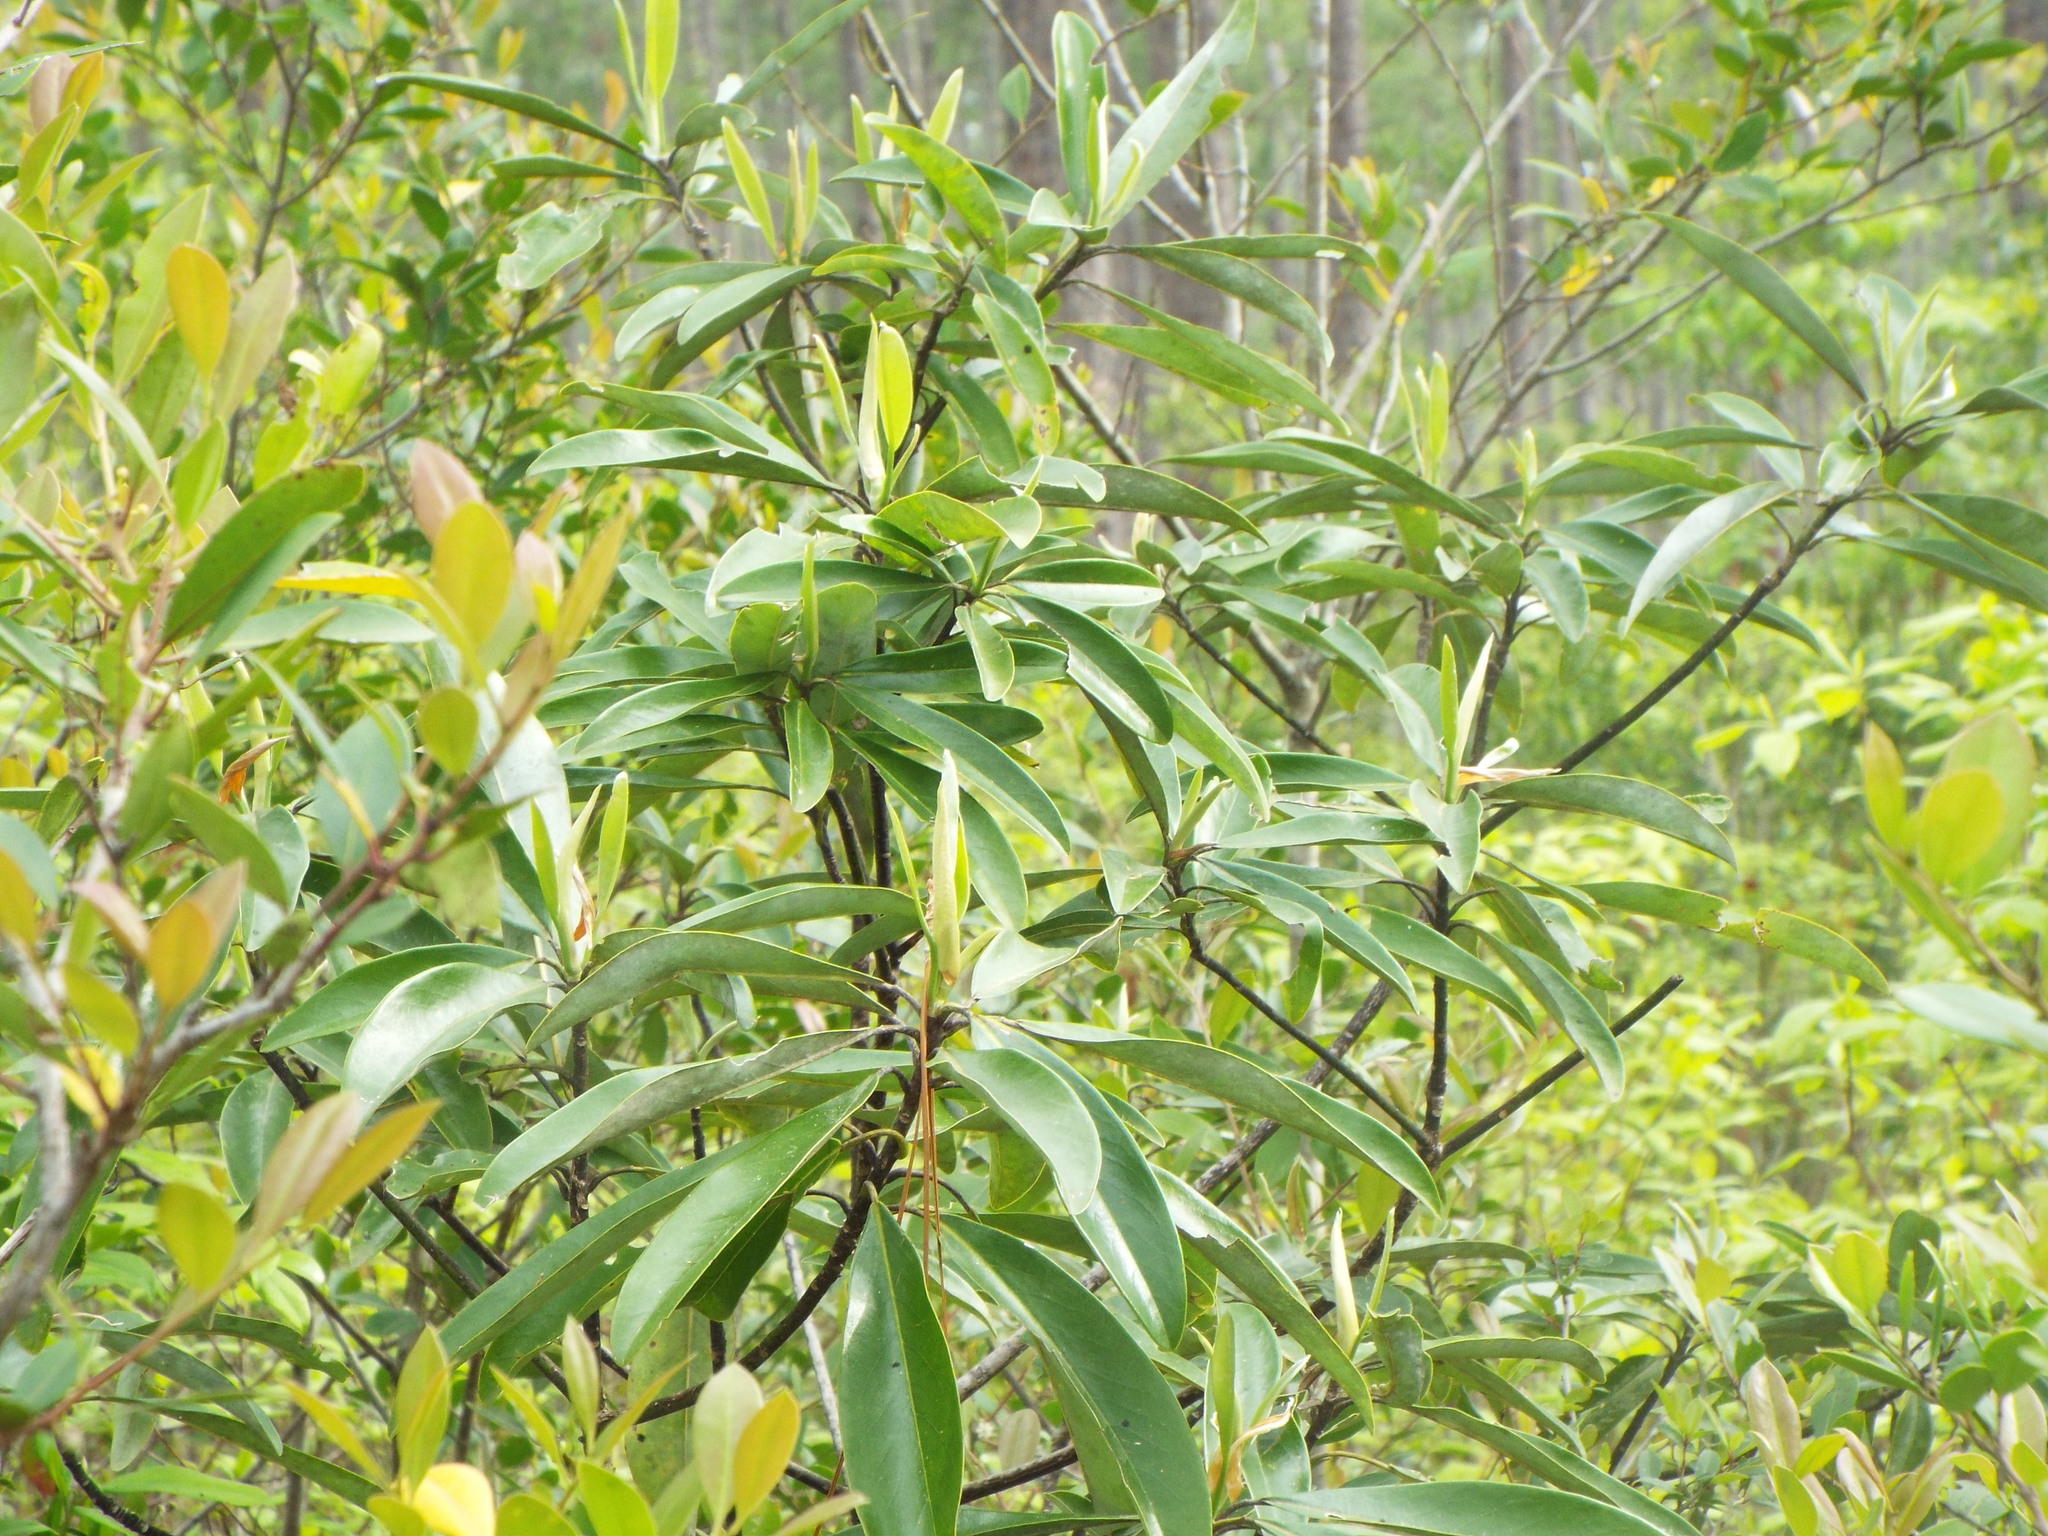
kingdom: Plantae
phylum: Tracheophyta
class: Magnoliopsida
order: Magnoliales
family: Magnoliaceae
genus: Magnolia
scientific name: Magnolia virginiana
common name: Swamp bay
